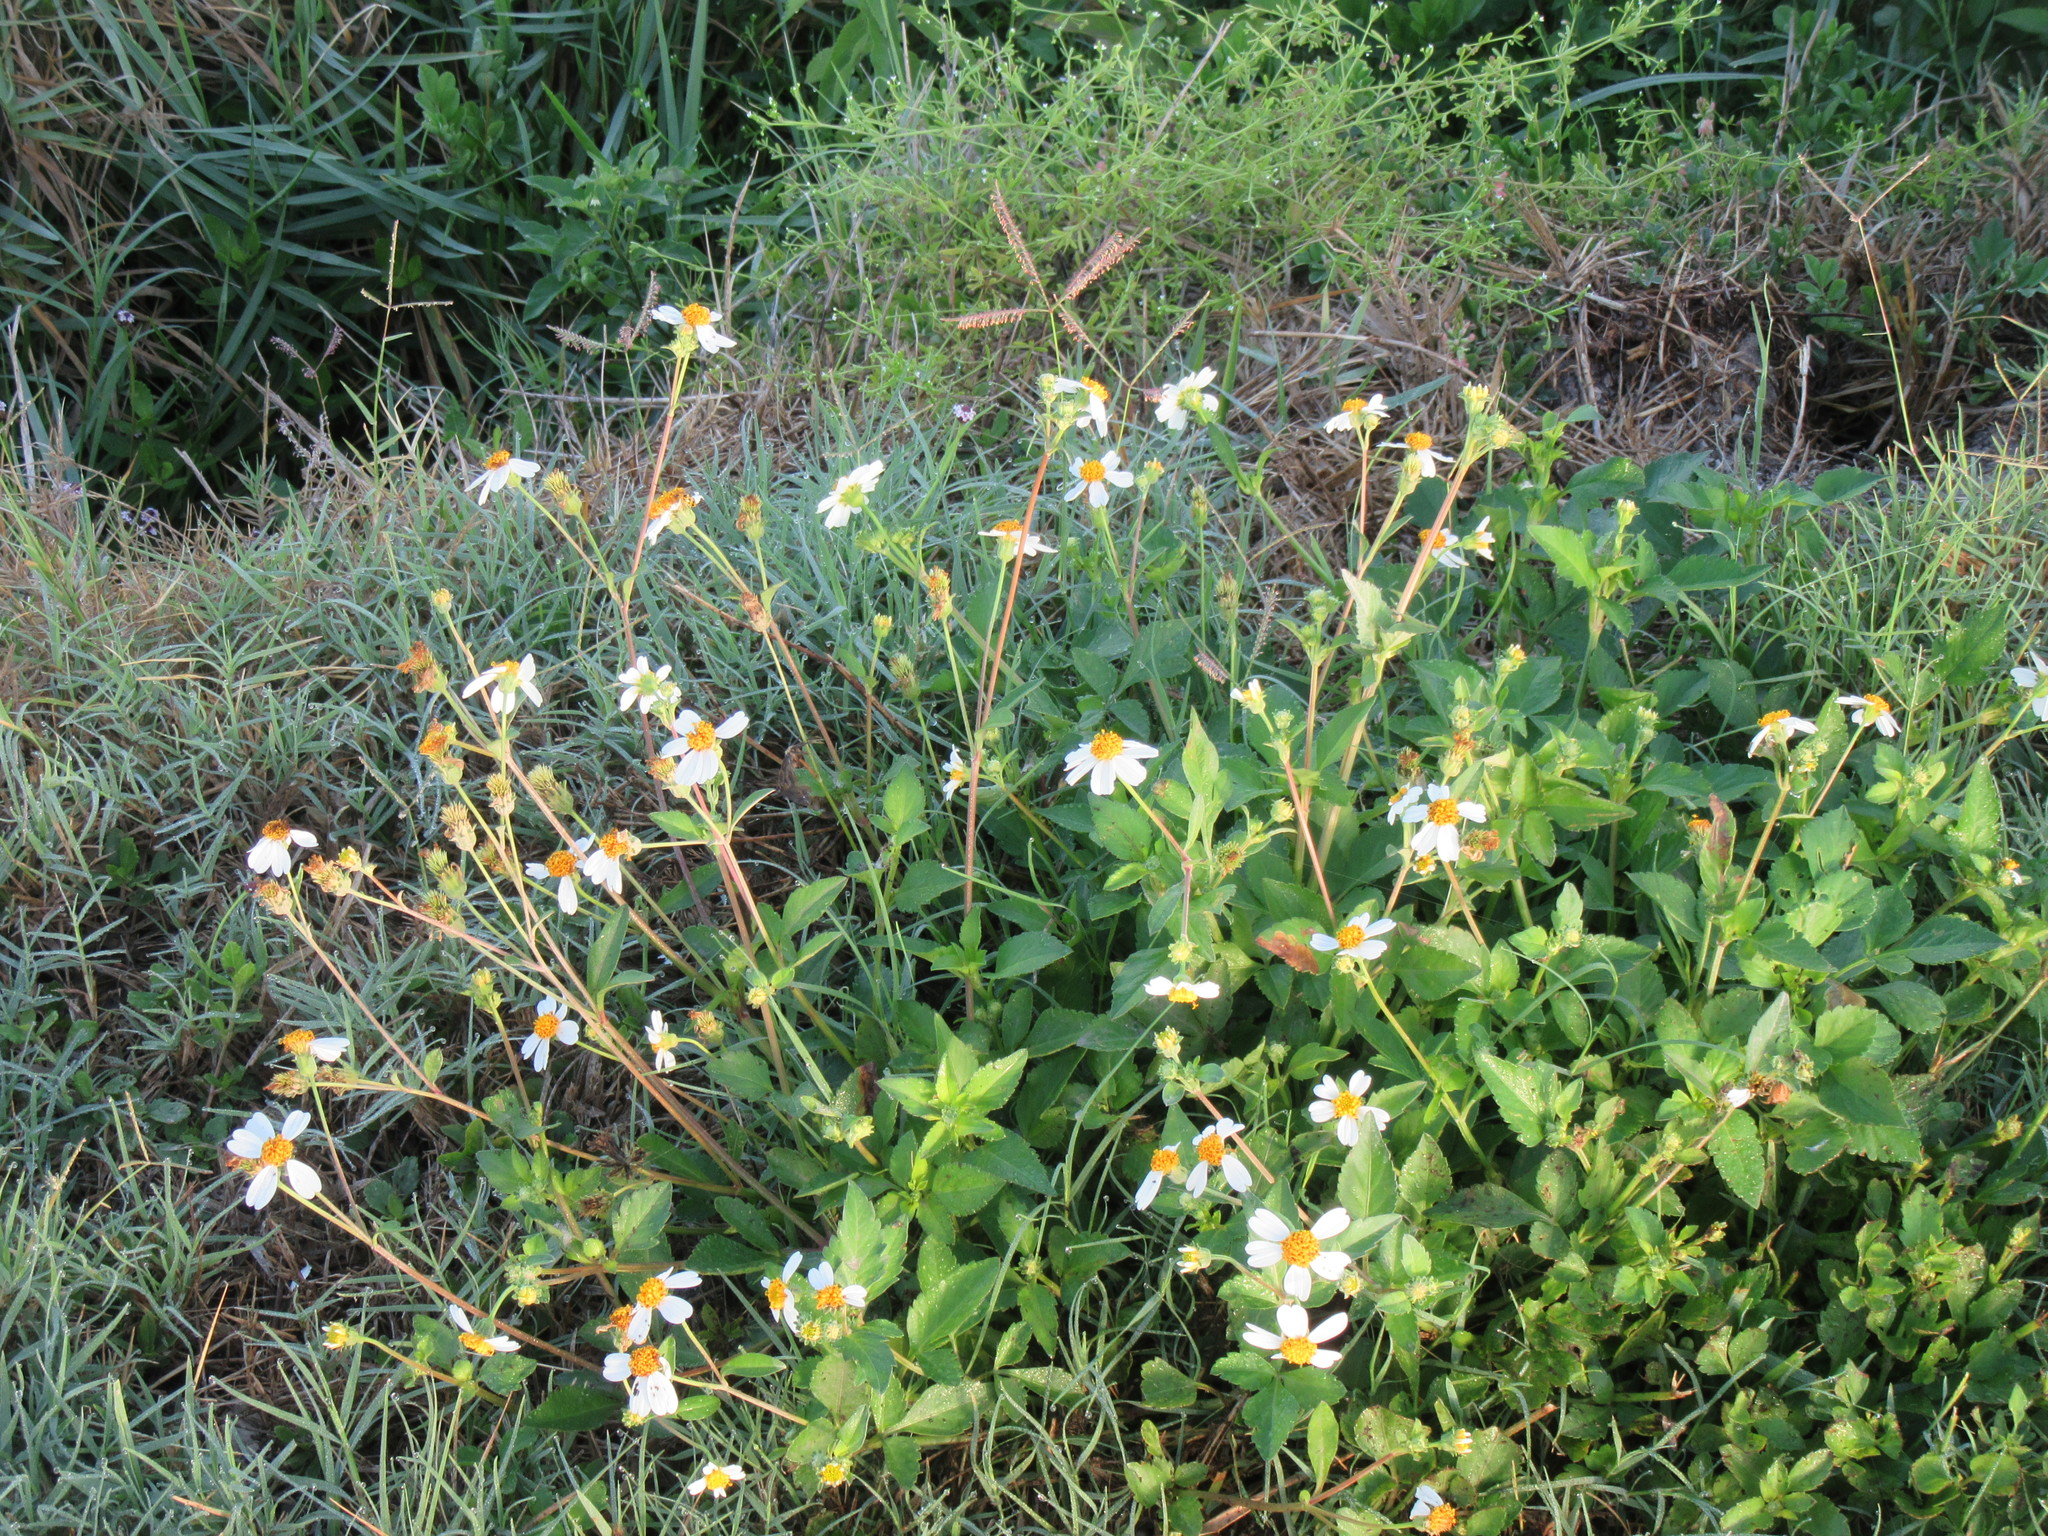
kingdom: Plantae
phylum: Tracheophyta
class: Magnoliopsida
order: Asterales
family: Asteraceae
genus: Bidens
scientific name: Bidens alba
